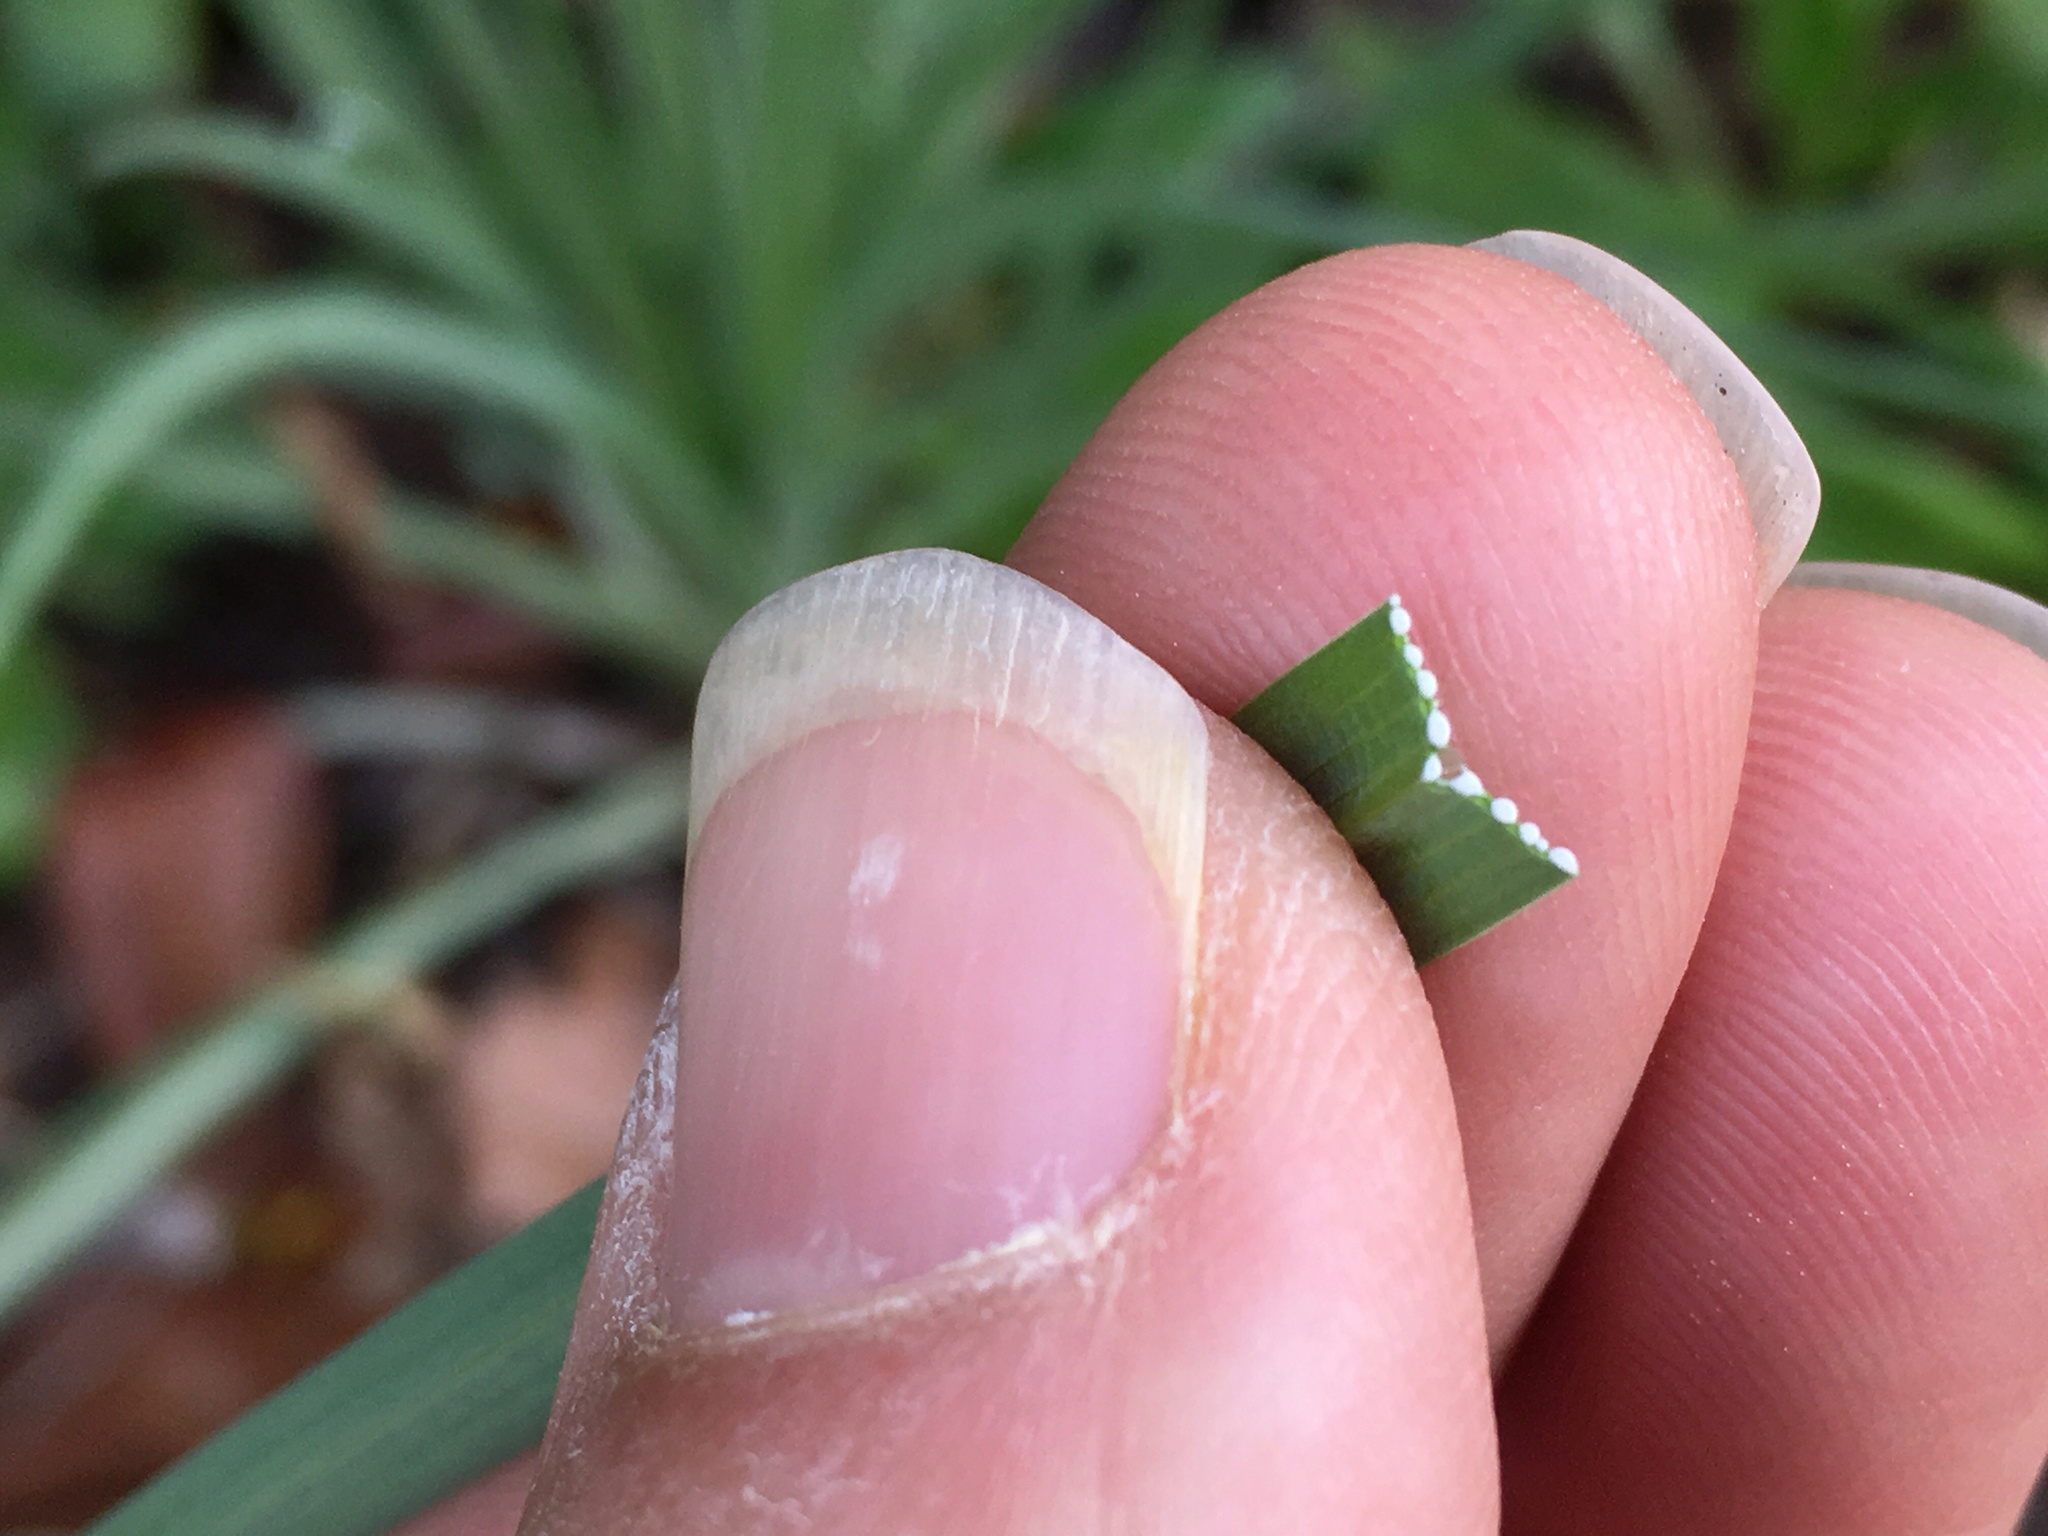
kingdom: Plantae
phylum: Tracheophyta
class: Magnoliopsida
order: Asterales
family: Asteraceae
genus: Tragopogon
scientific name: Tragopogon porrifolius
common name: Salsify
